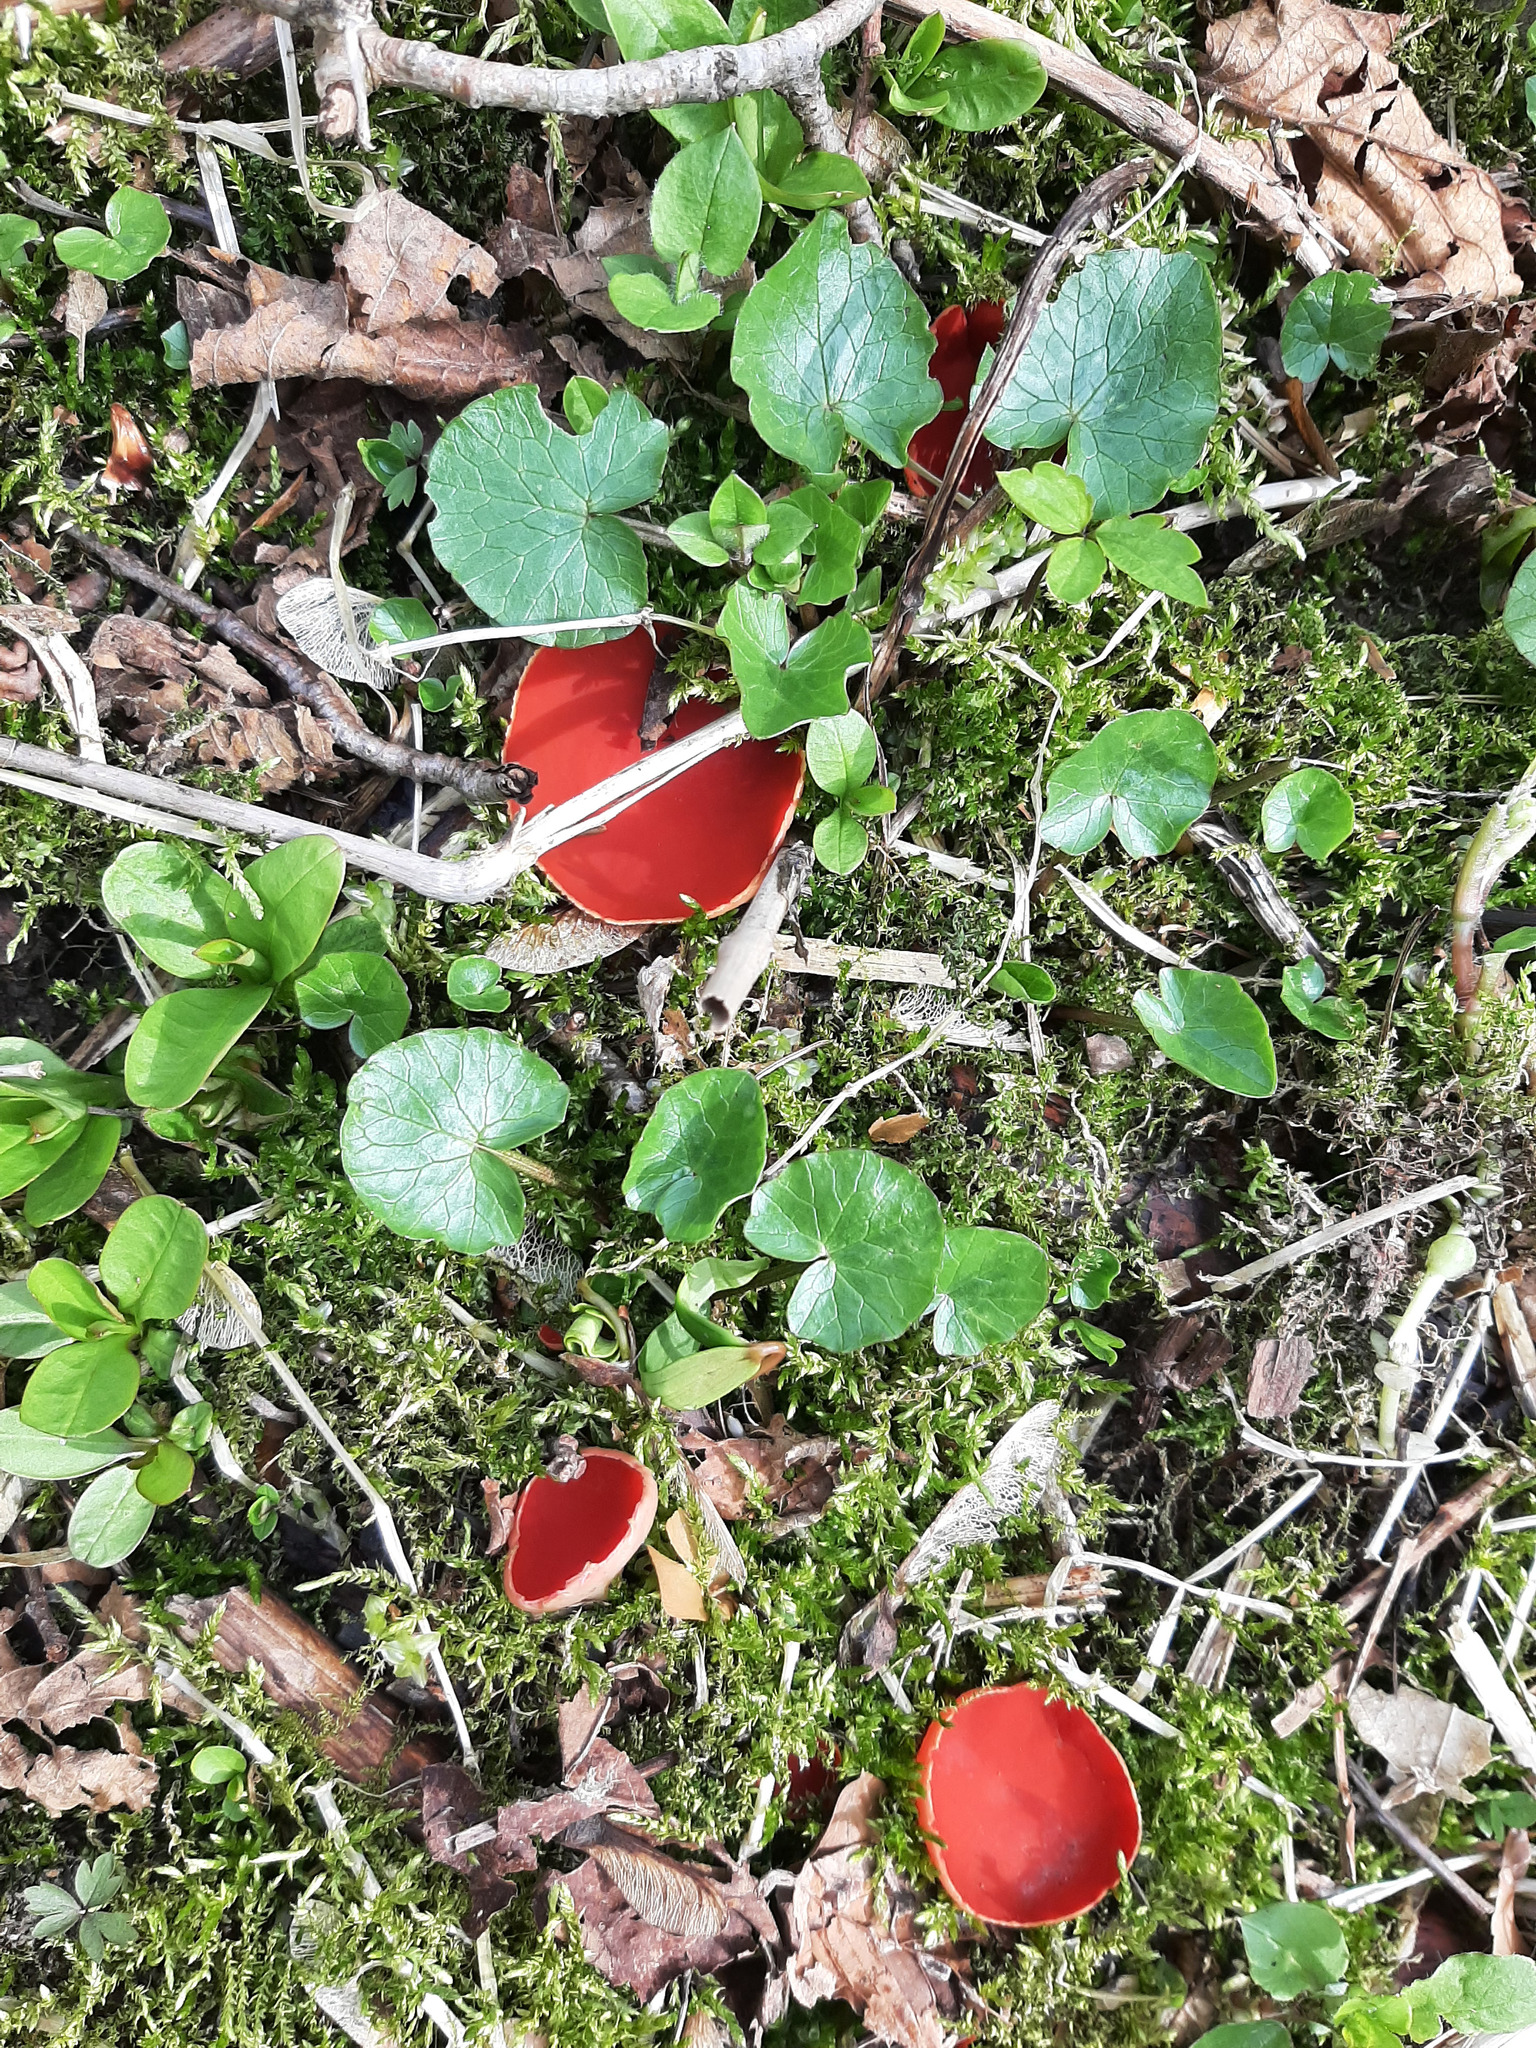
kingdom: Fungi
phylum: Ascomycota
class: Pezizomycetes
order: Pezizales
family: Sarcoscyphaceae
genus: Sarcoscypha
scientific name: Sarcoscypha
